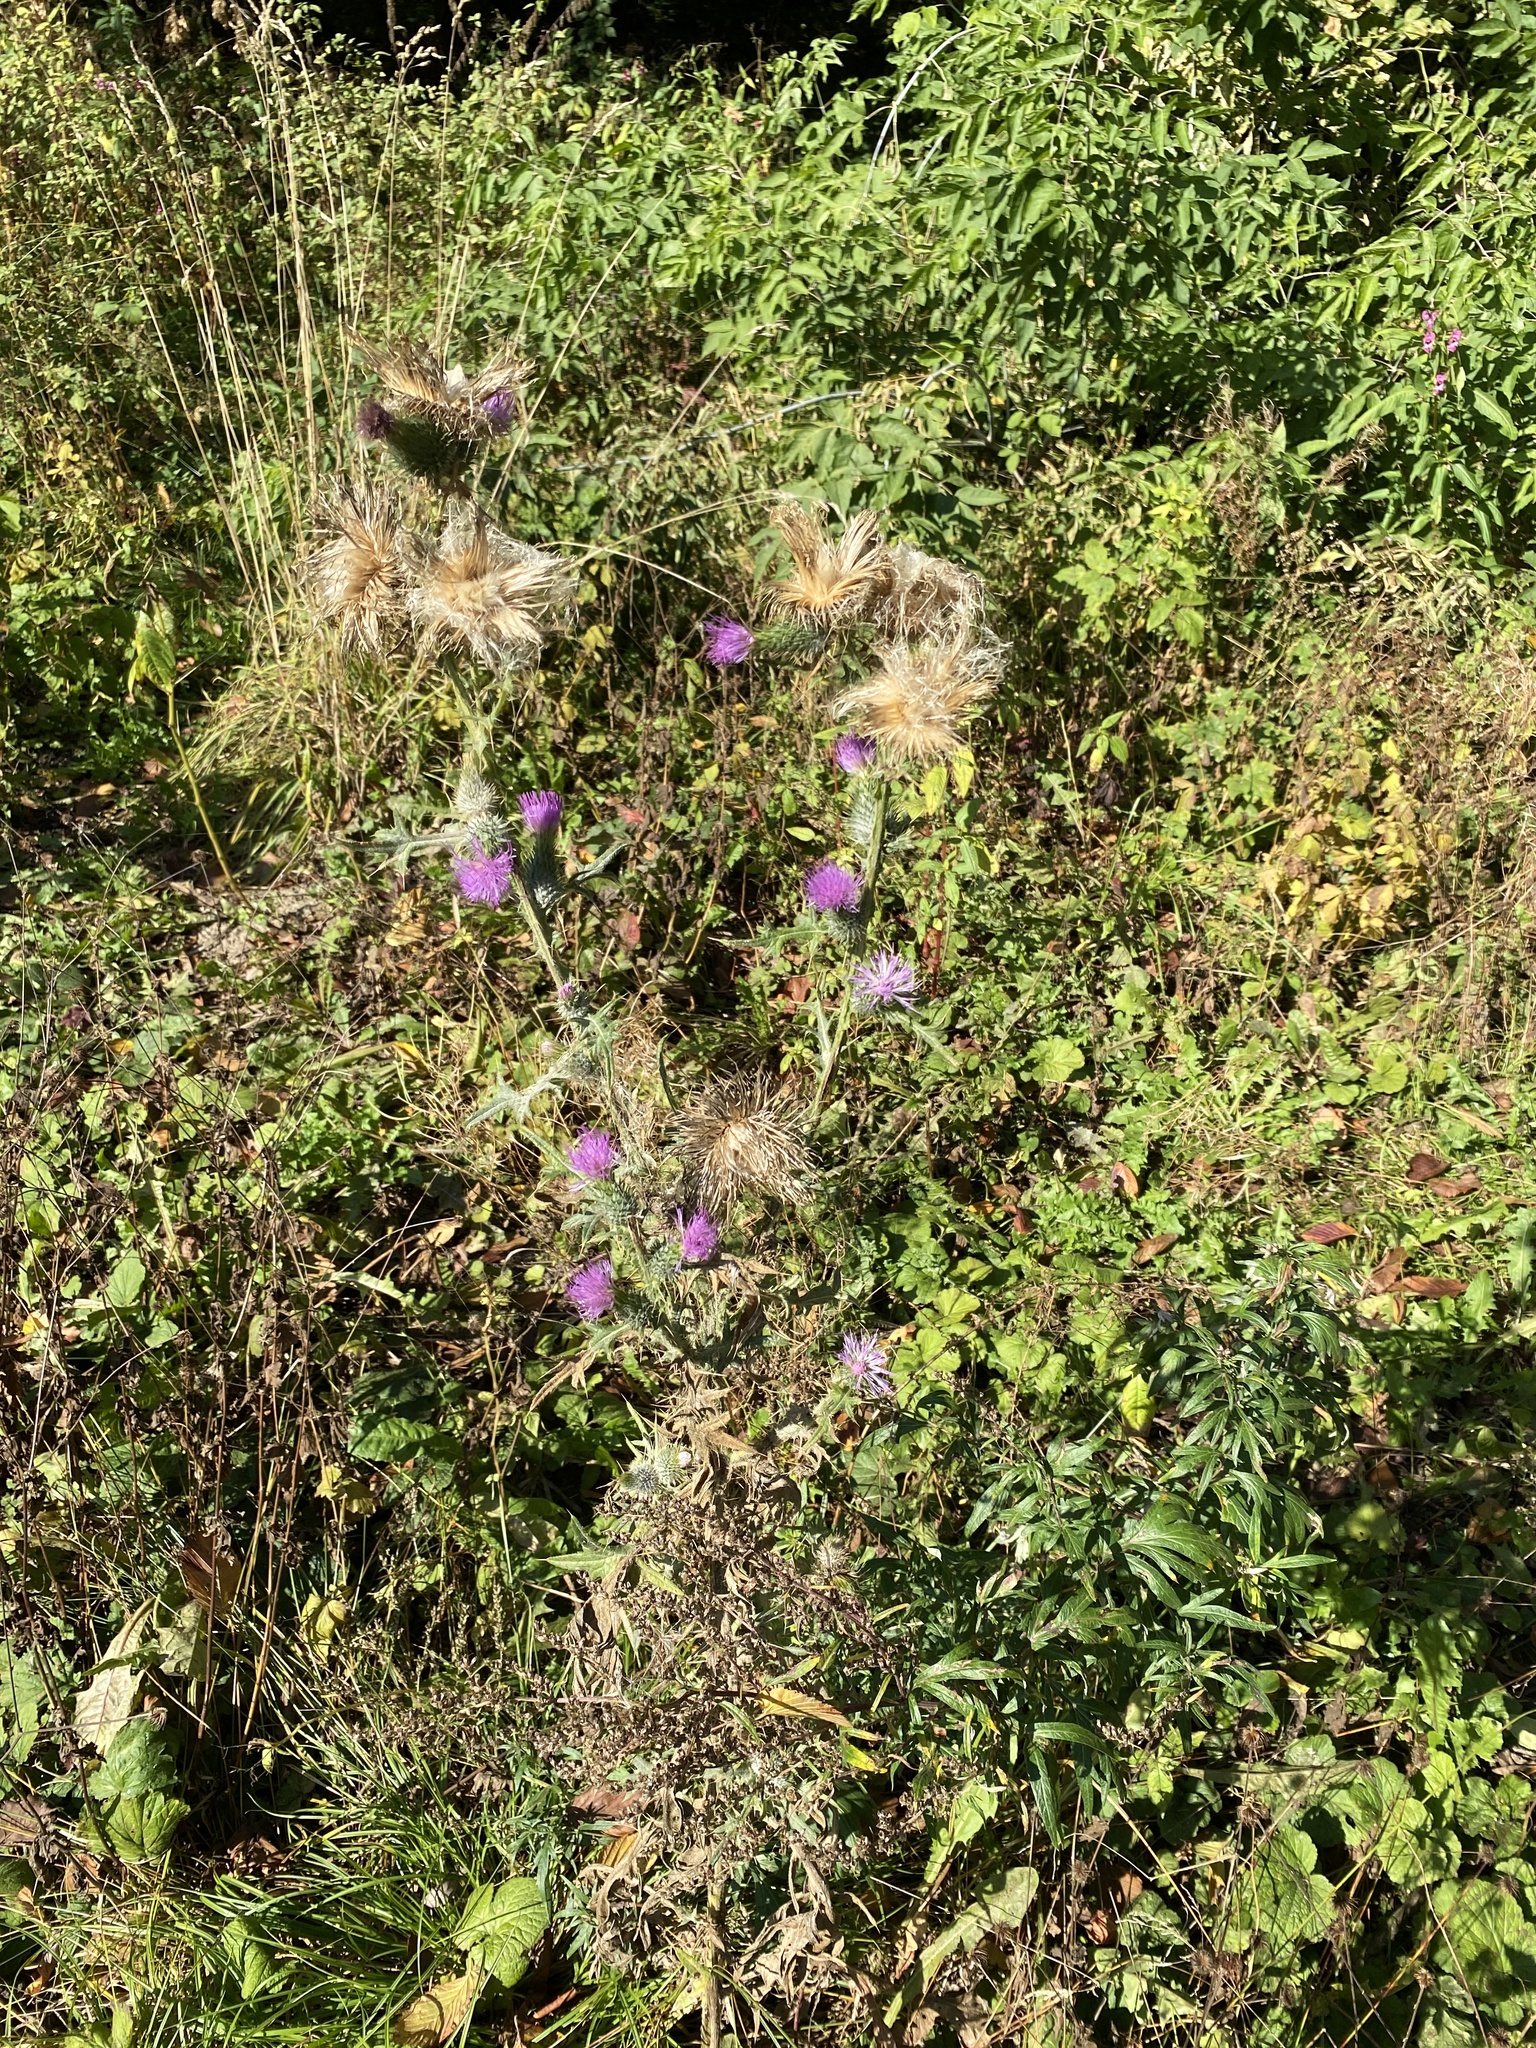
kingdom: Plantae
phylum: Tracheophyta
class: Magnoliopsida
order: Asterales
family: Asteraceae
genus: Cirsium
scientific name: Cirsium vulgare
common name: Bull thistle
